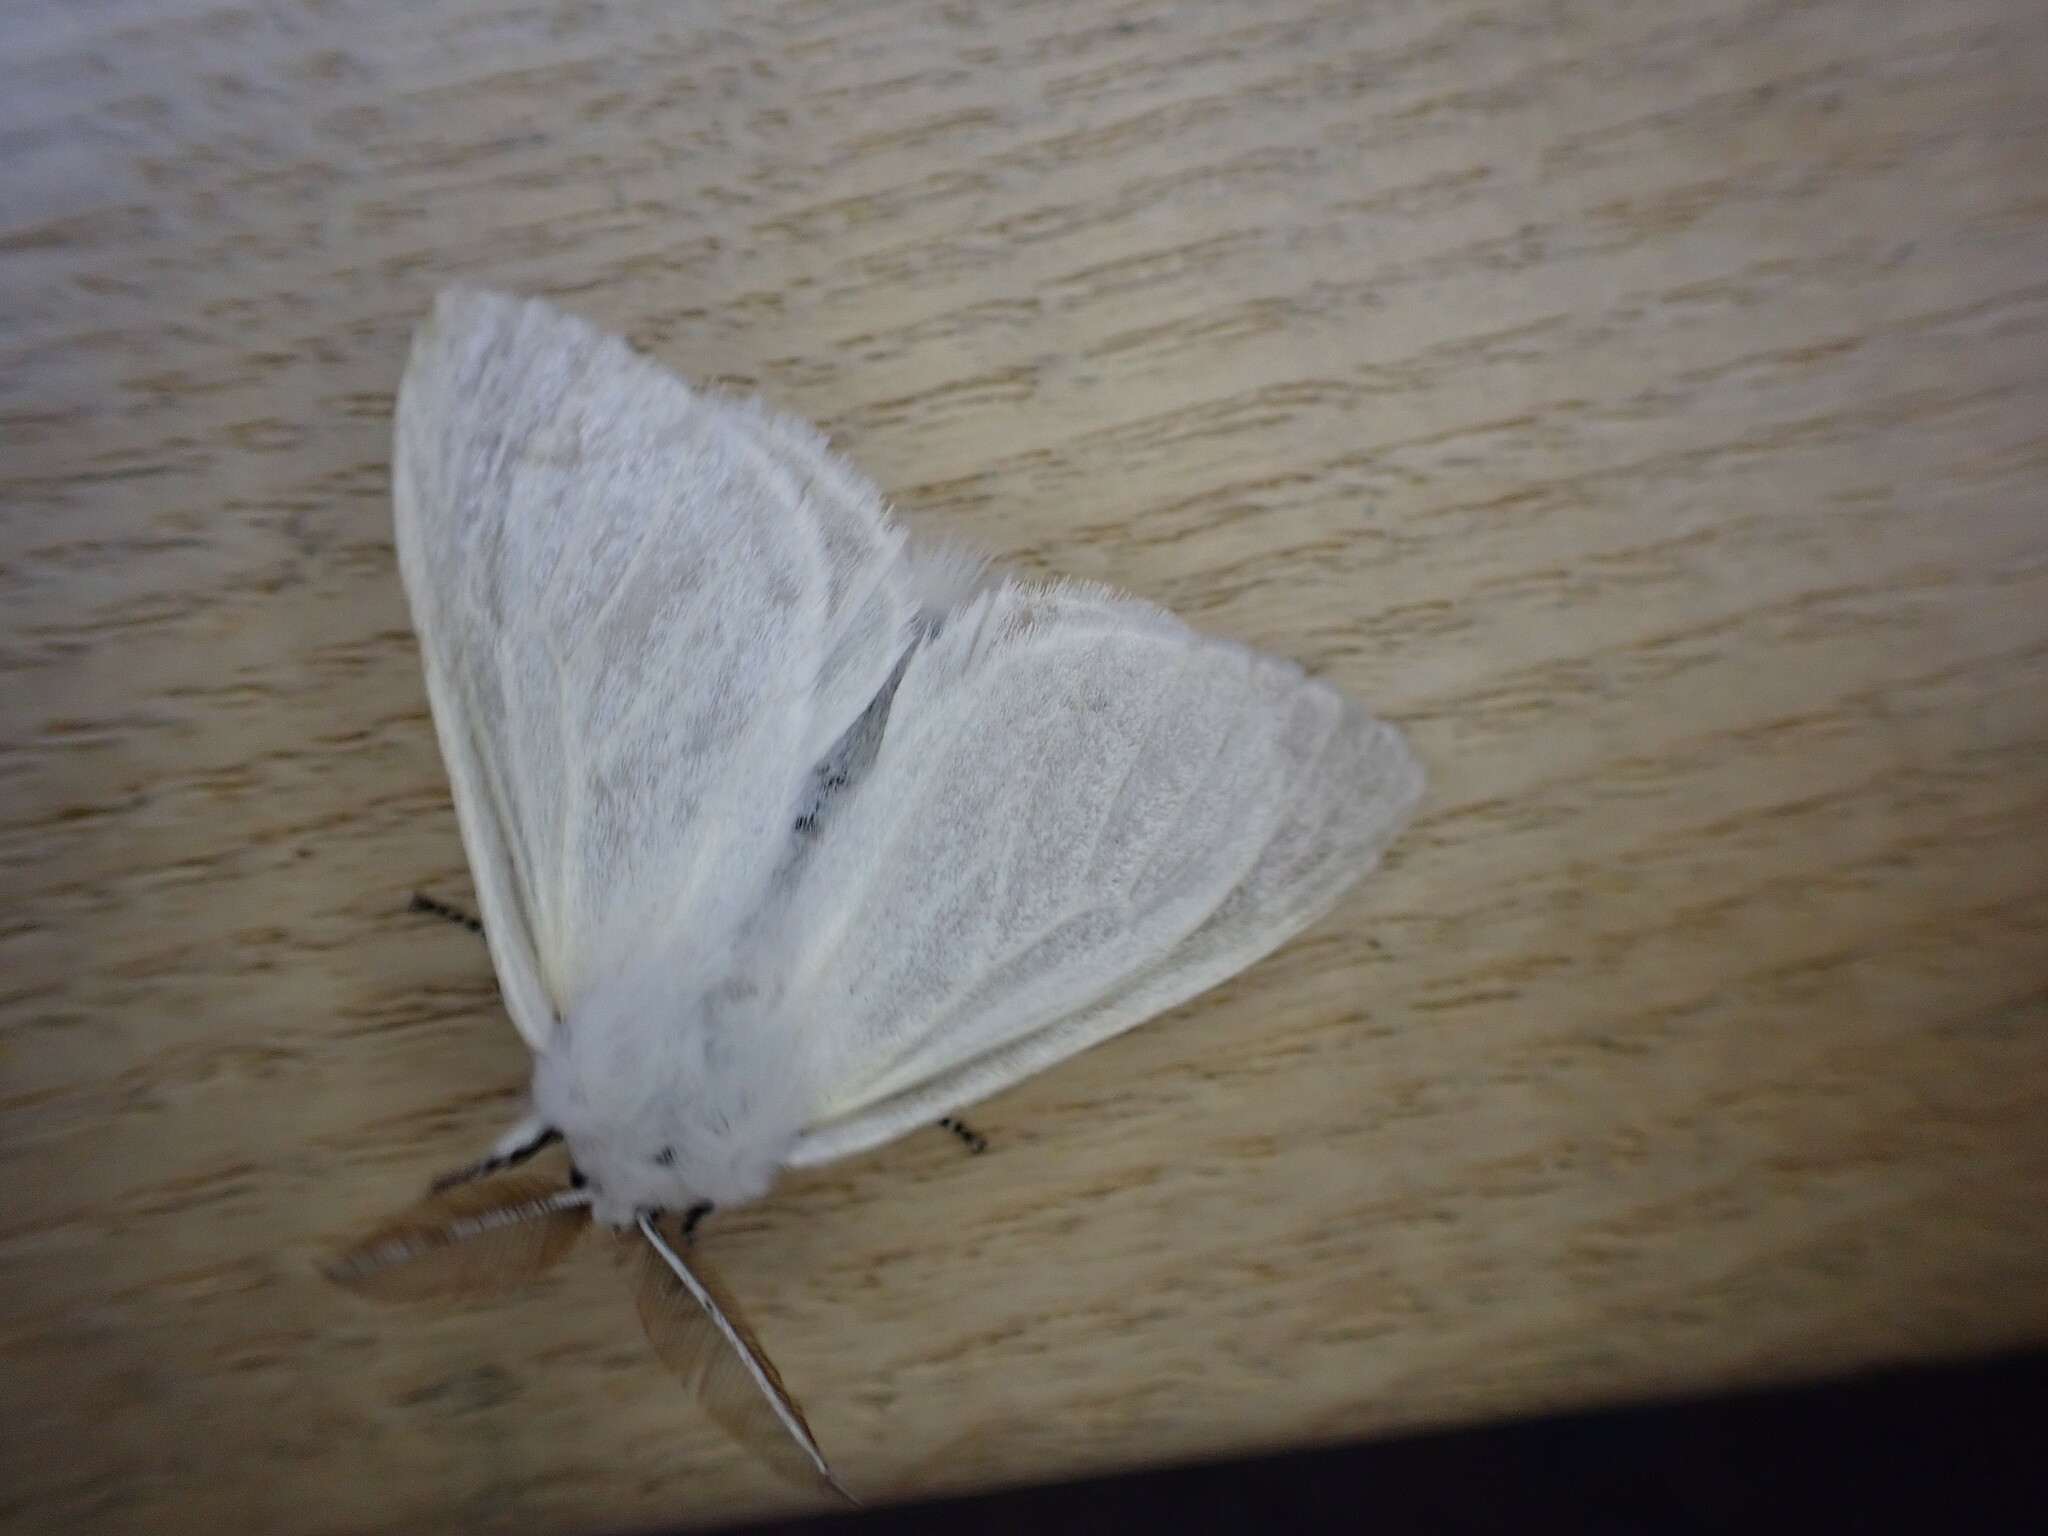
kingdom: Animalia
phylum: Arthropoda
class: Insecta
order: Lepidoptera
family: Erebidae
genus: Leucoma
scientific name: Leucoma salicis
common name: White satin moth
